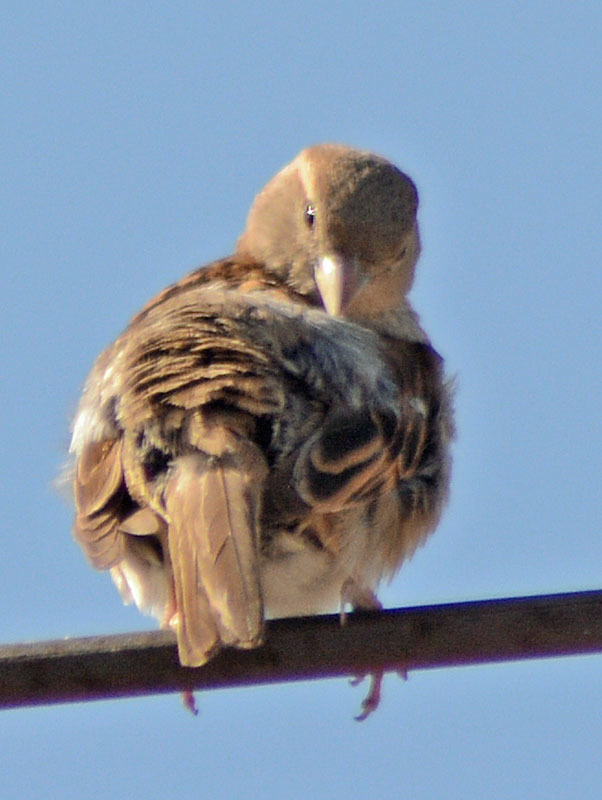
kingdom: Animalia
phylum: Chordata
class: Aves
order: Passeriformes
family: Passeridae
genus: Passer
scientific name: Passer domesticus
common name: House sparrow
